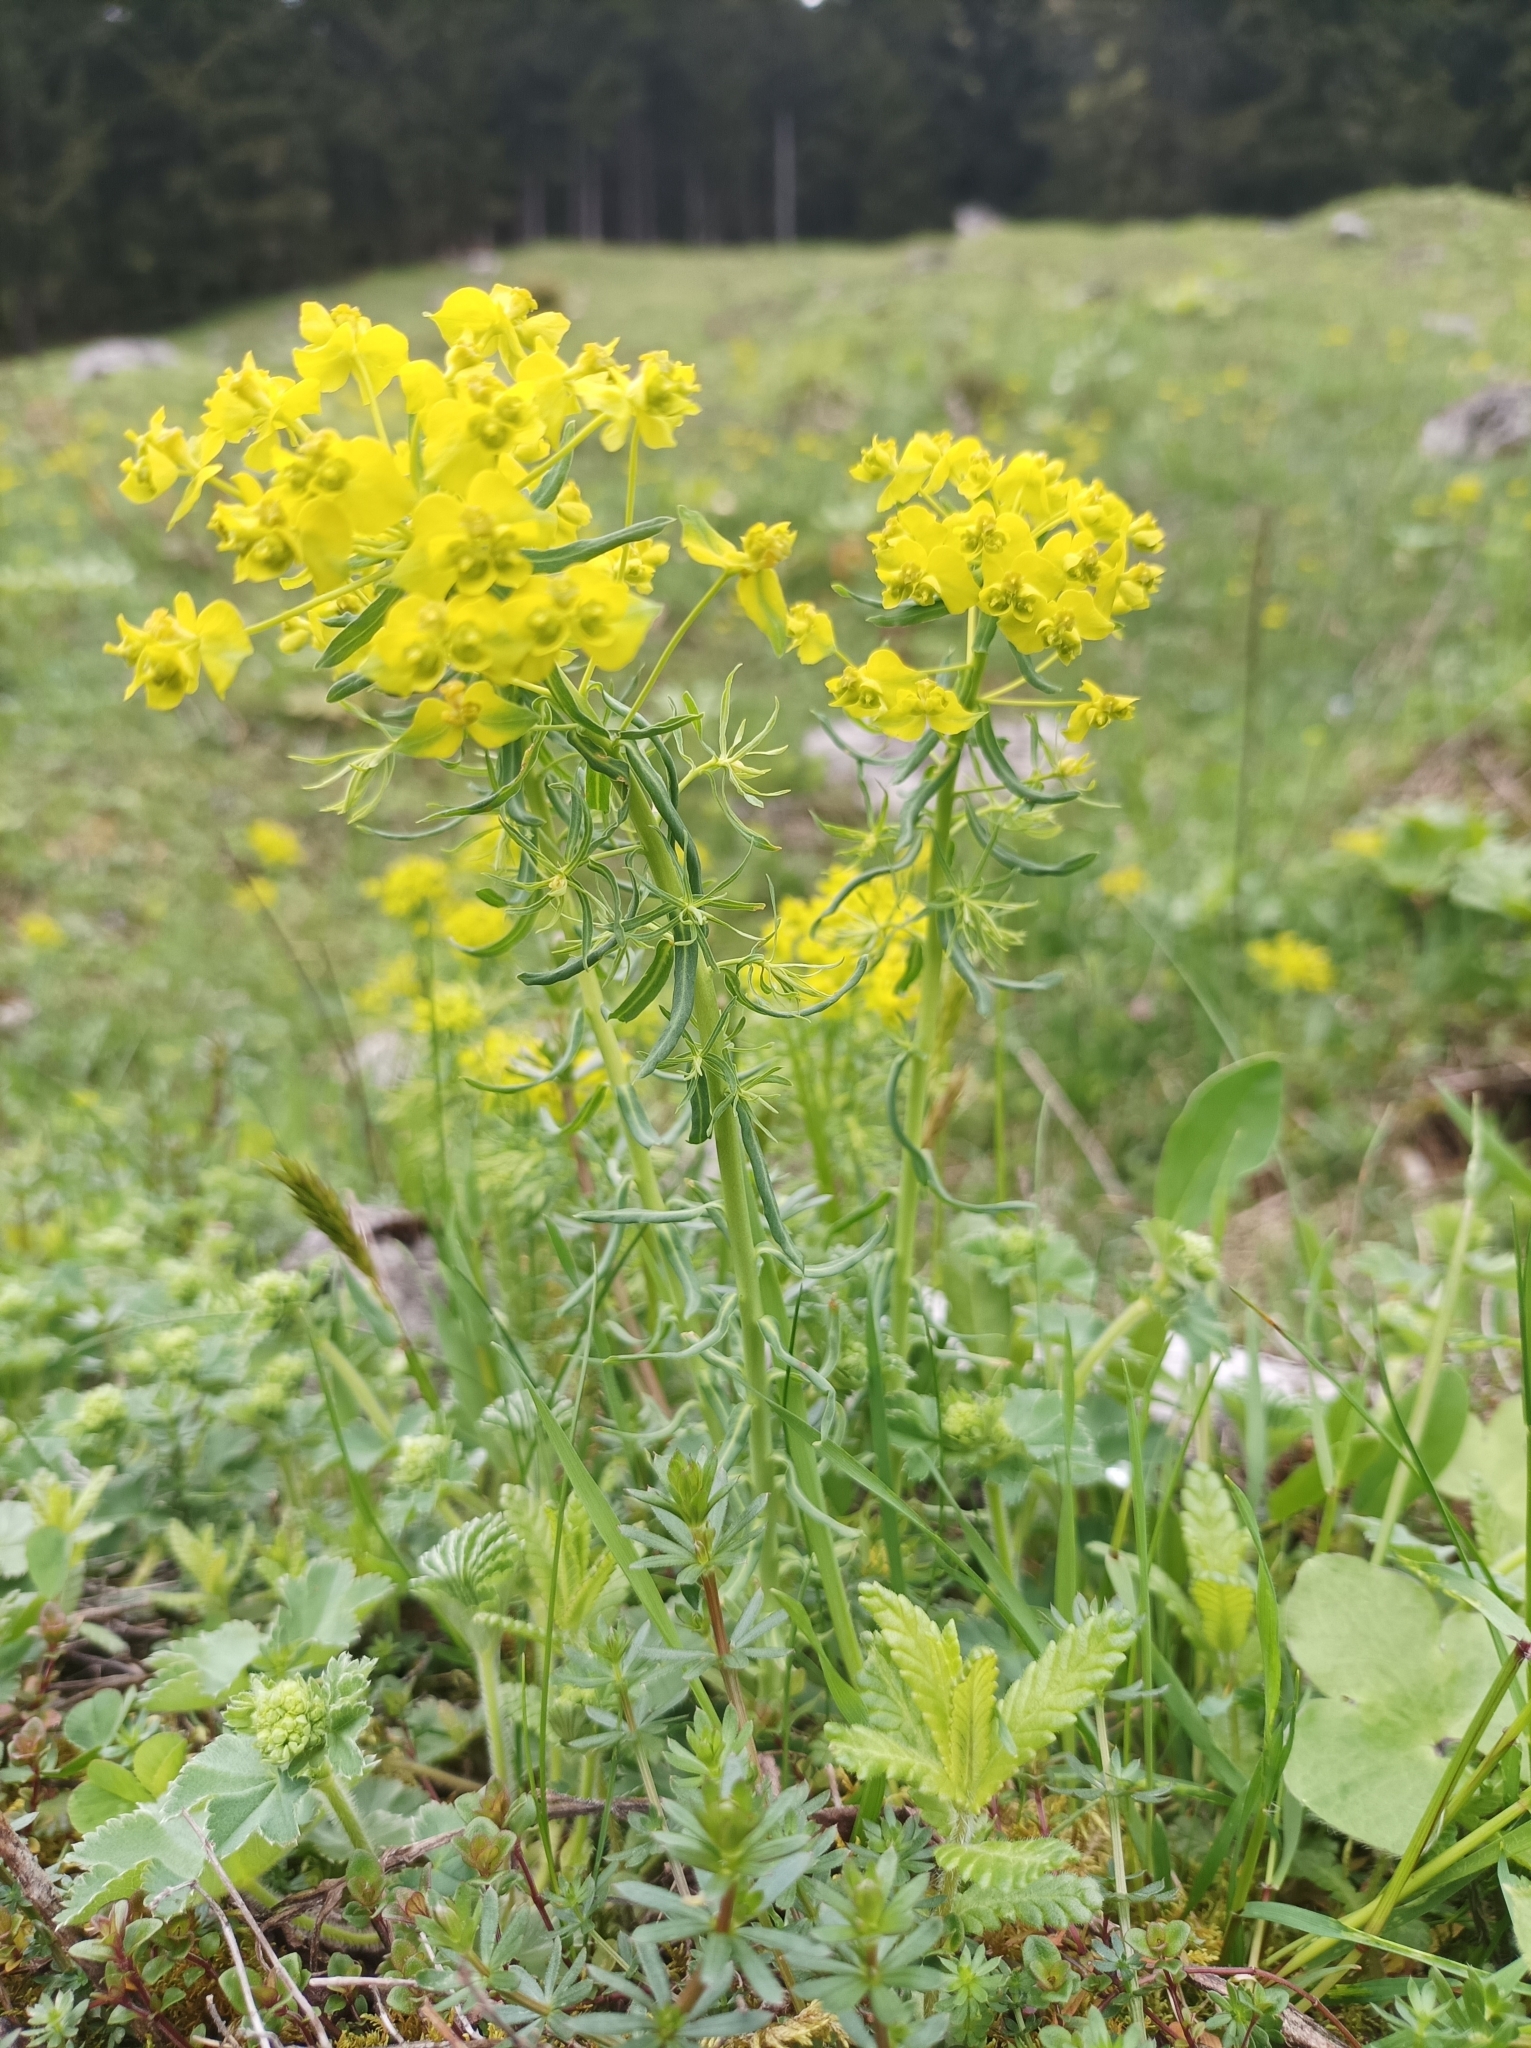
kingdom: Plantae
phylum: Tracheophyta
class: Magnoliopsida
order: Malpighiales
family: Euphorbiaceae
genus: Euphorbia
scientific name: Euphorbia cyparissias
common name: Cypress spurge
